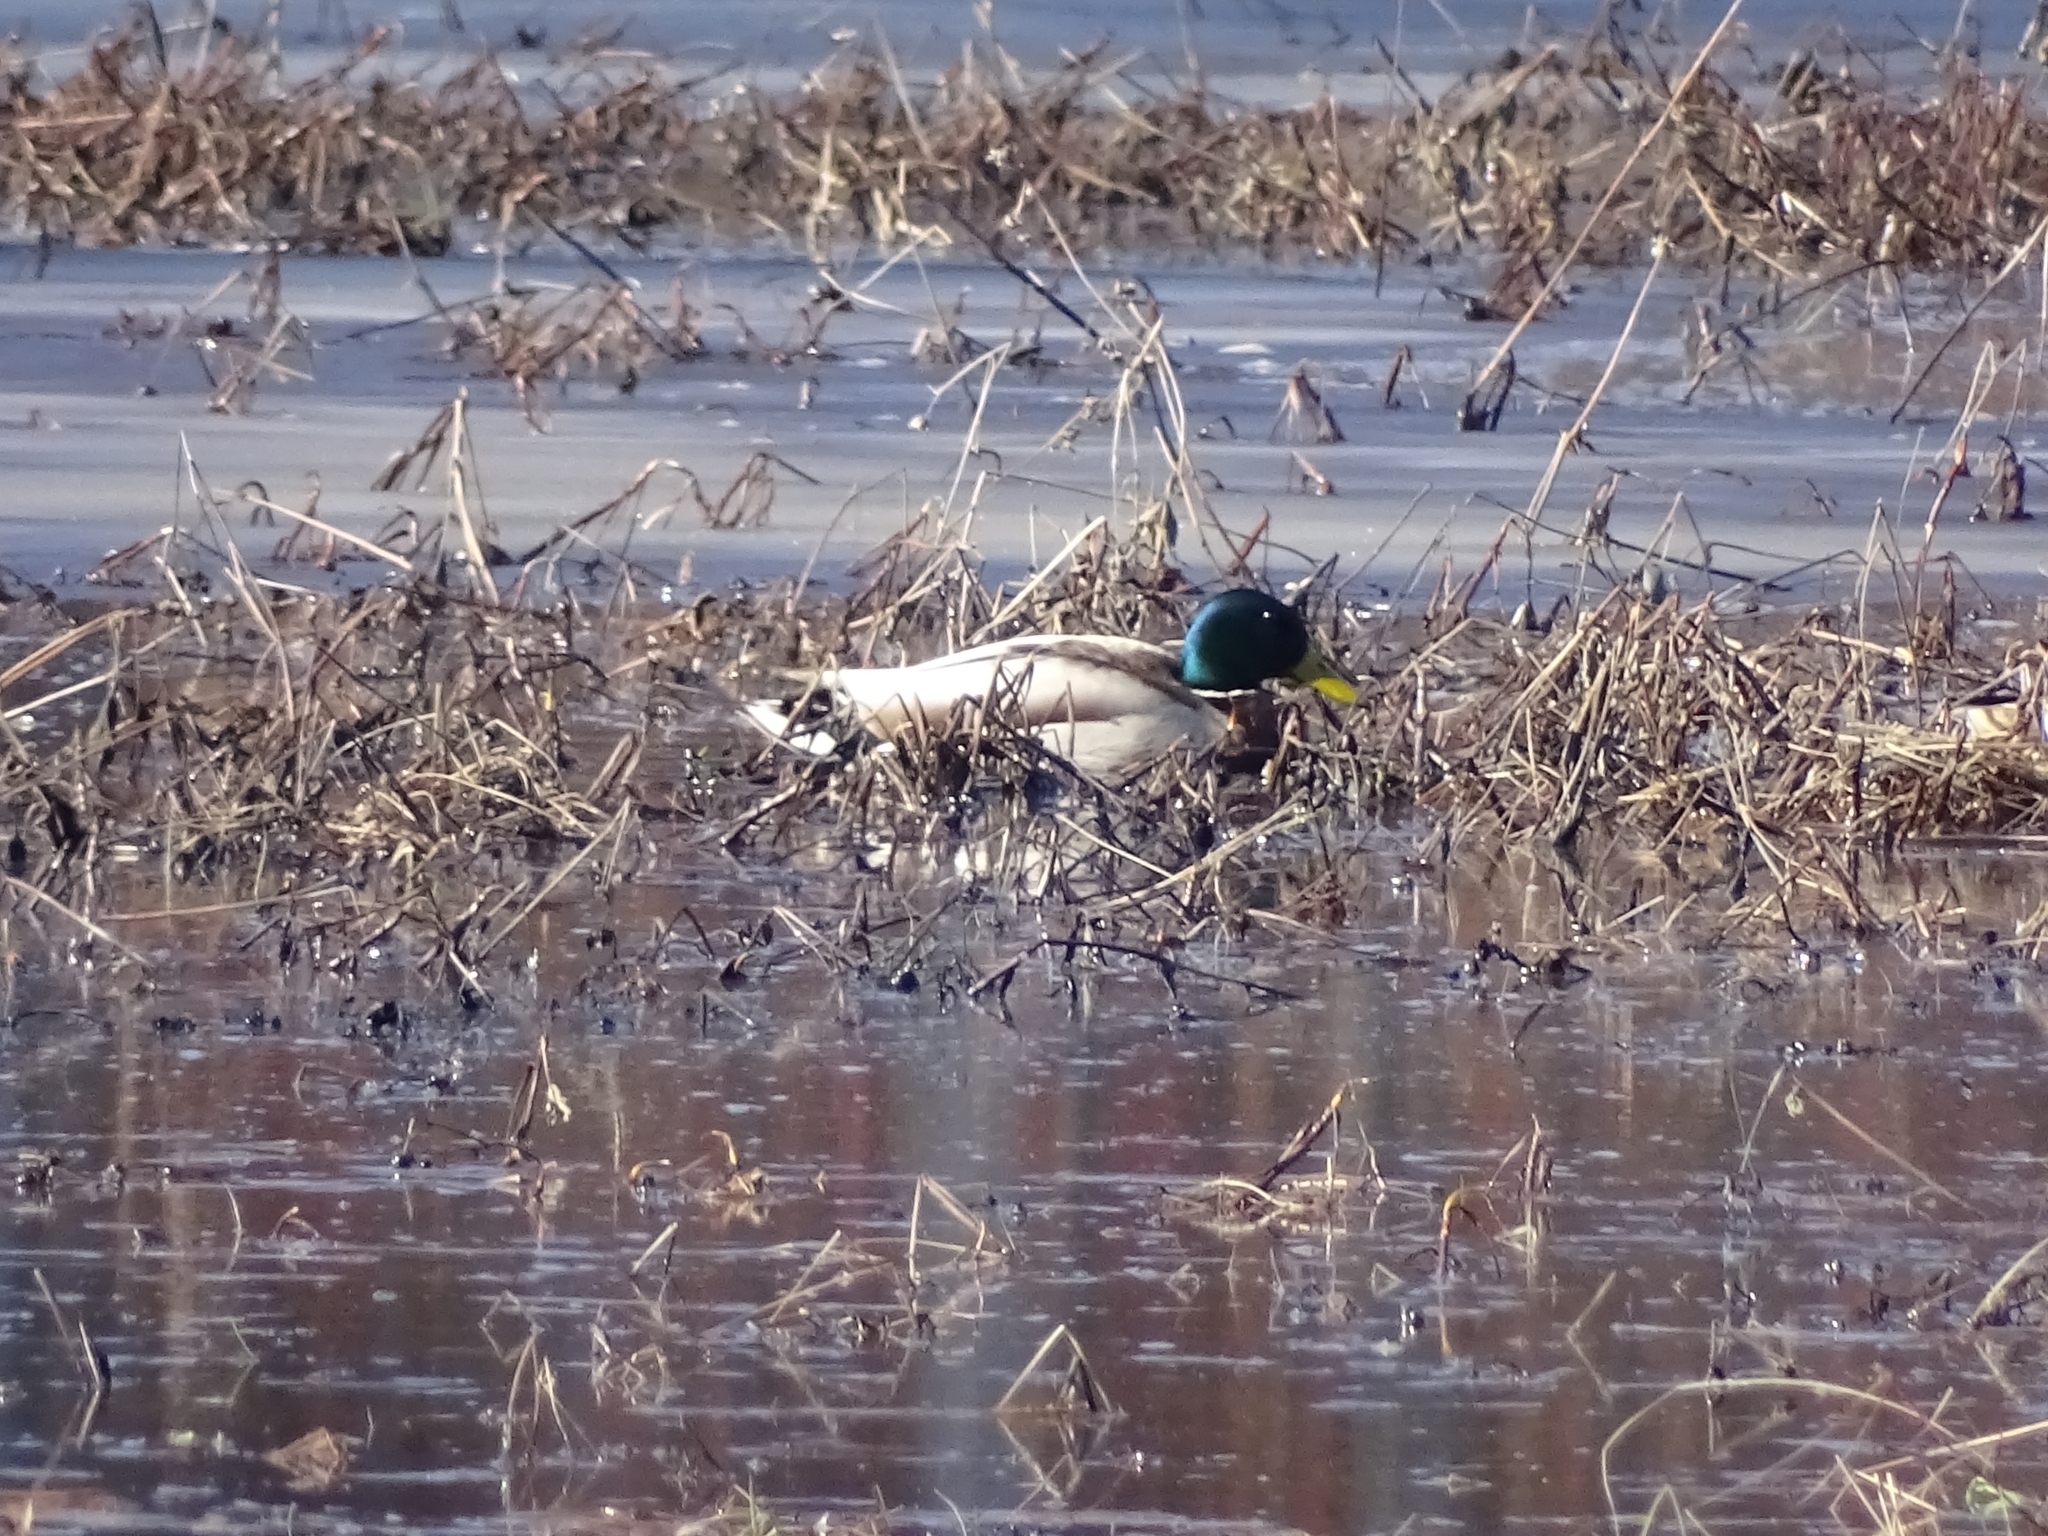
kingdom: Animalia
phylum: Chordata
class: Aves
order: Anseriformes
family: Anatidae
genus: Anas
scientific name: Anas platyrhynchos
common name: Mallard
